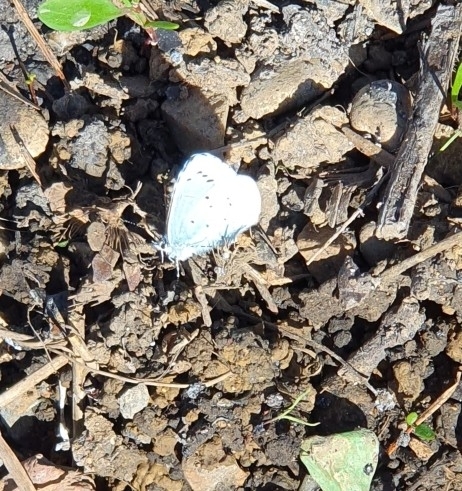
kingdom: Animalia
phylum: Arthropoda
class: Insecta
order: Lepidoptera
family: Lycaenidae
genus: Celastrina
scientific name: Celastrina argiolus
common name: Holly blue
